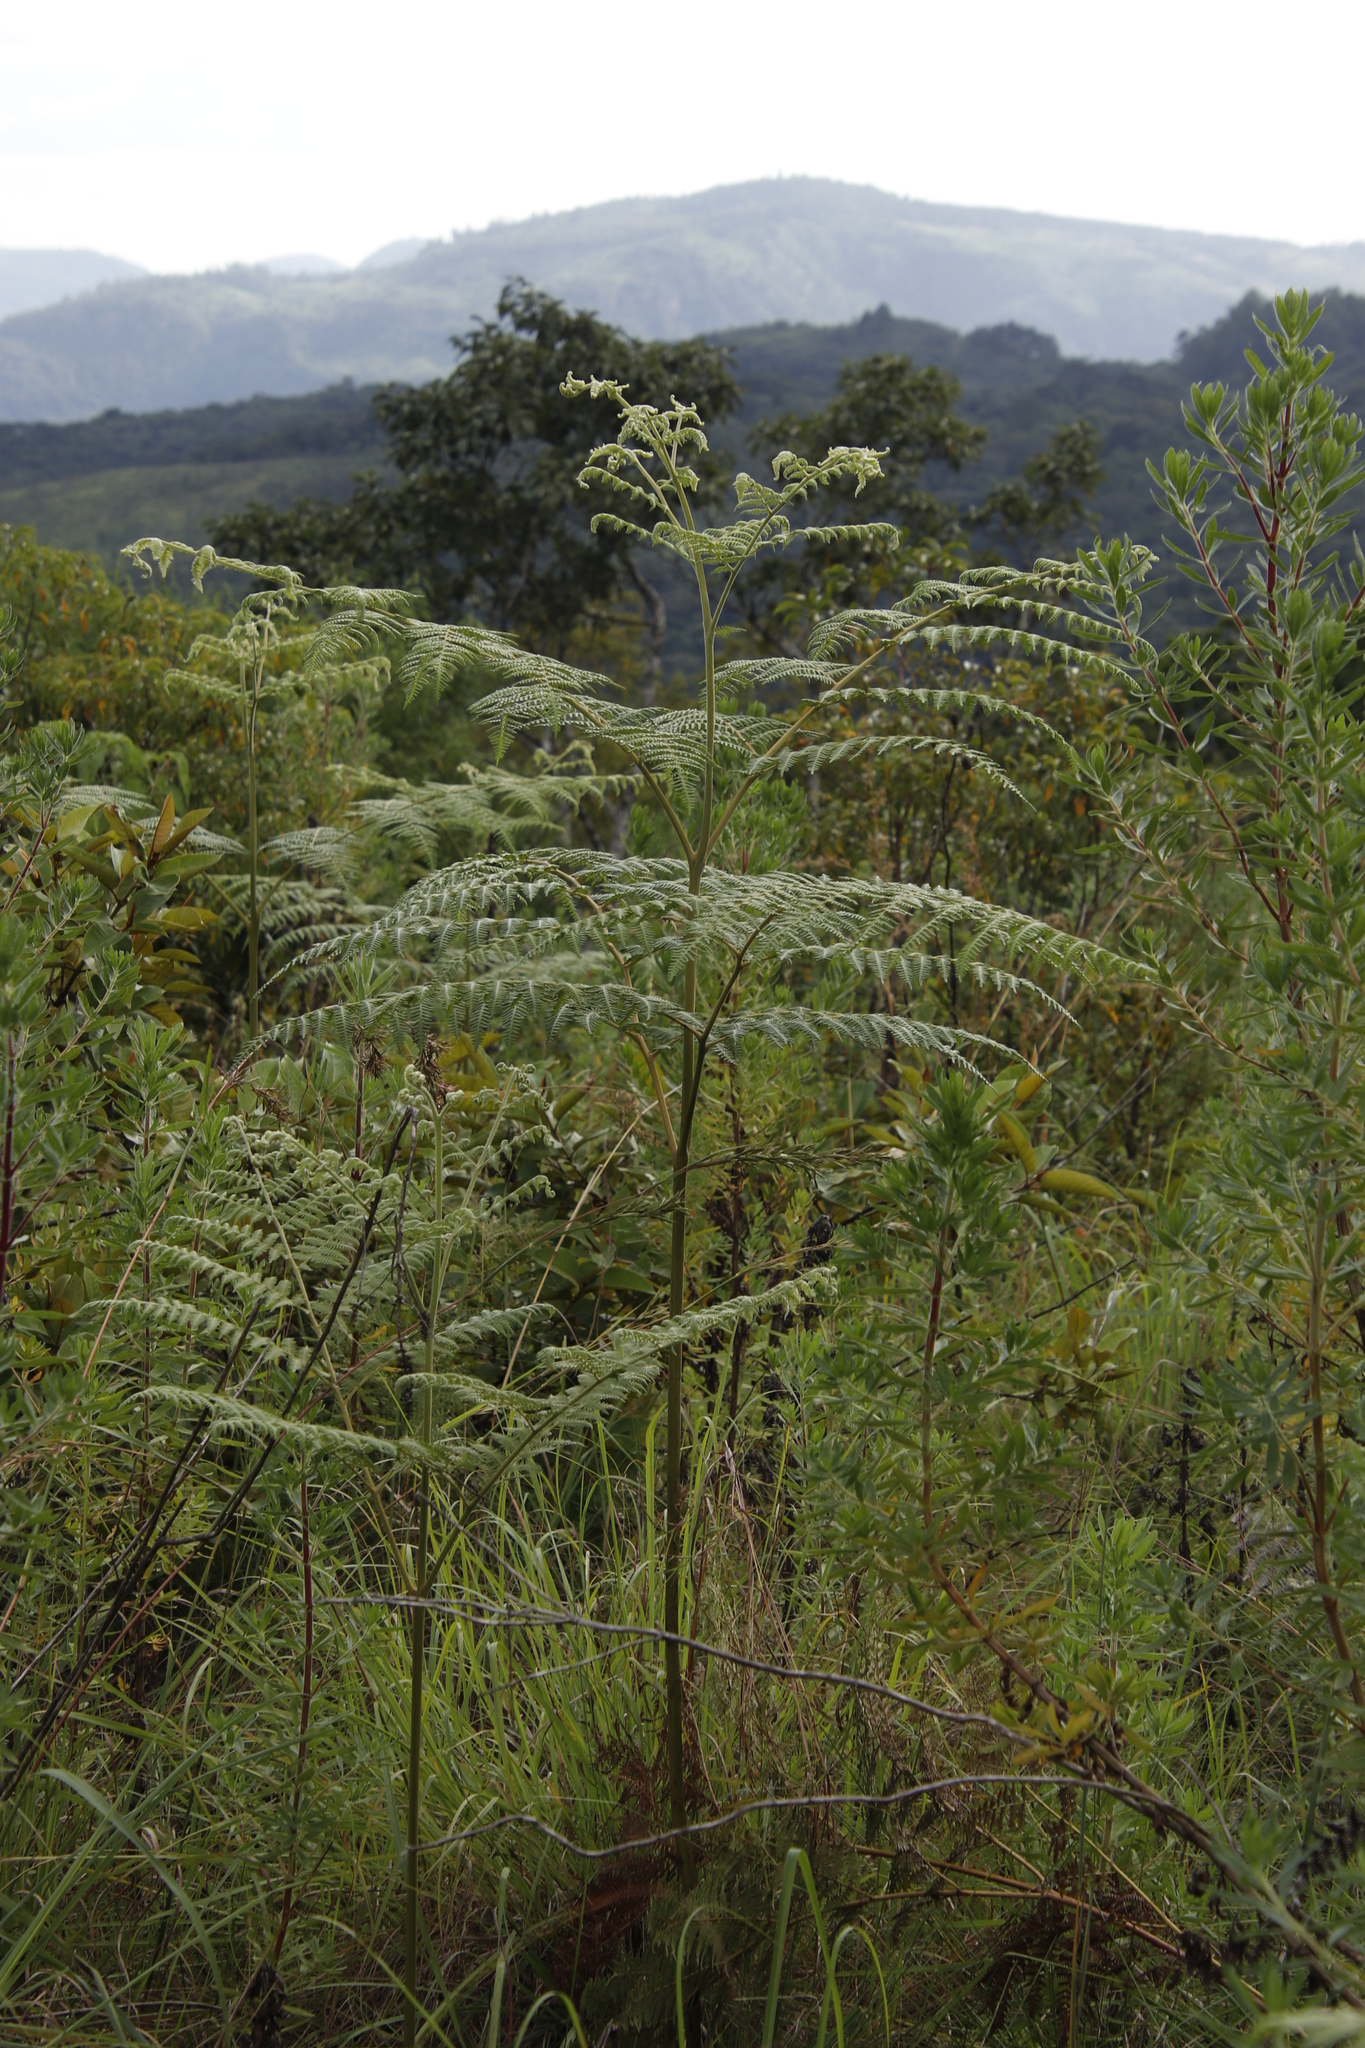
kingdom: Plantae
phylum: Tracheophyta
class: Polypodiopsida
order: Polypodiales
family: Dennstaedtiaceae
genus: Pteridium
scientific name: Pteridium aquilinum
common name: Bracken
